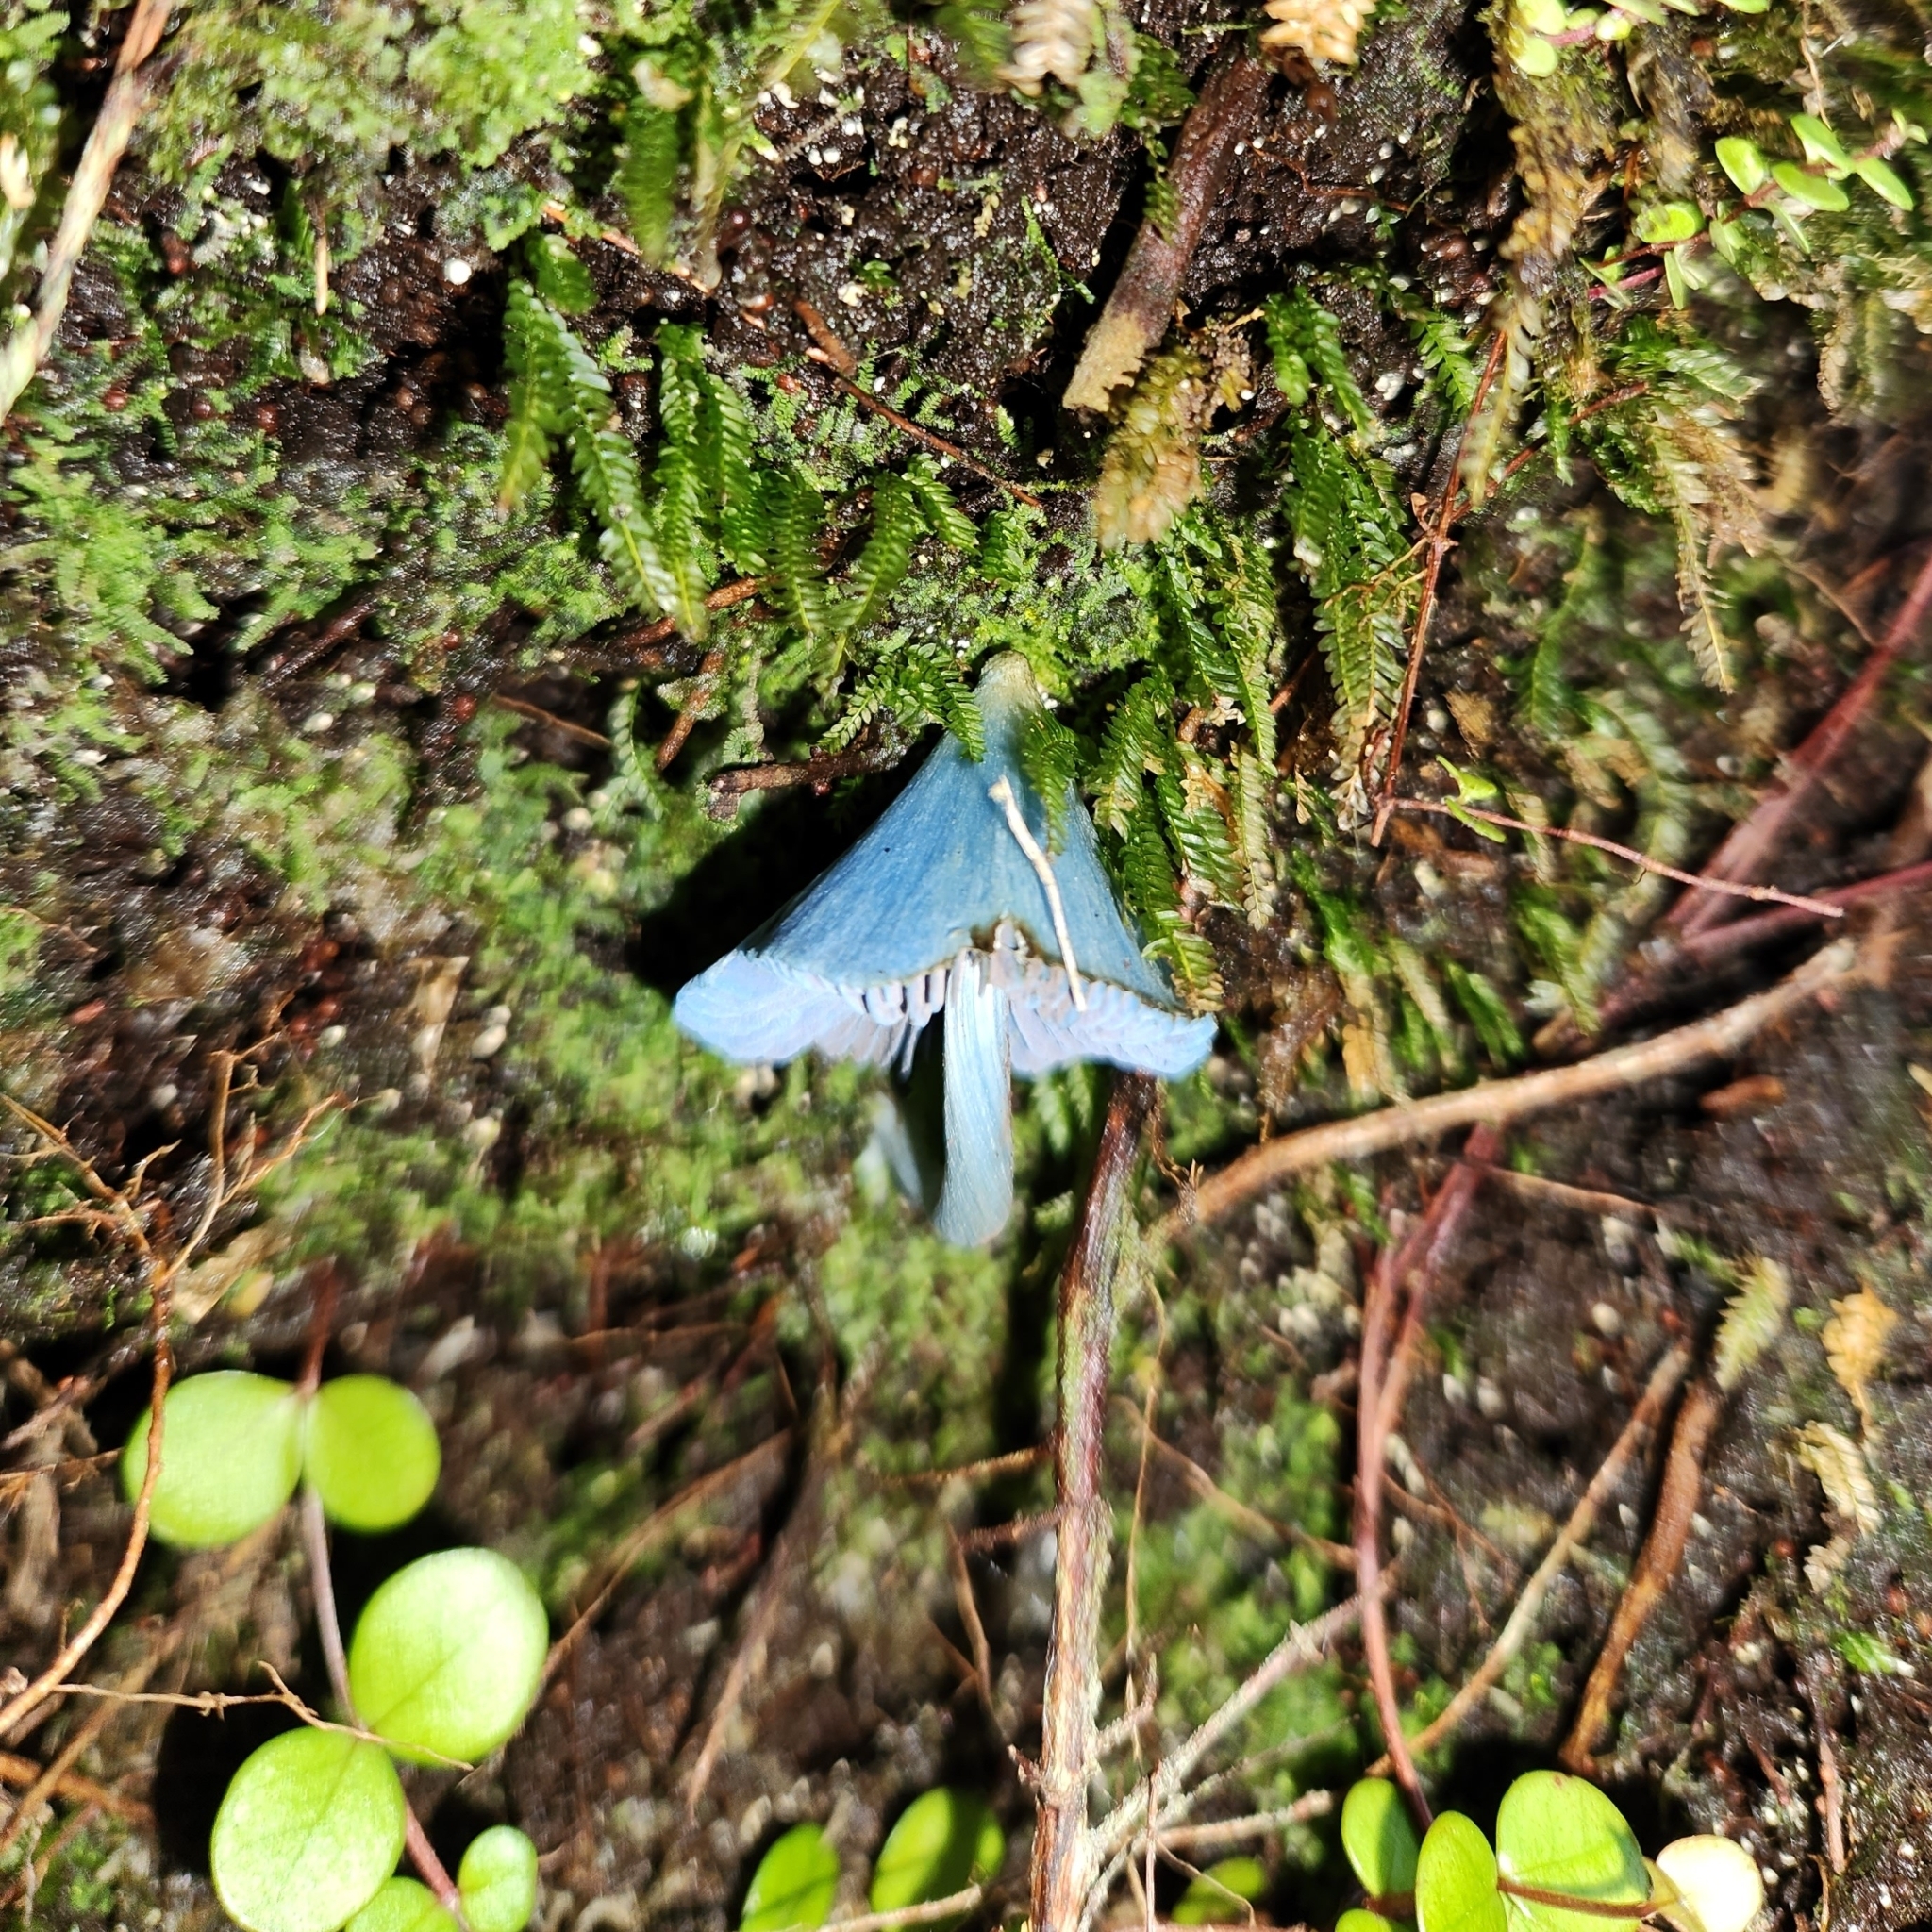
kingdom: Fungi
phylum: Basidiomycota
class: Agaricomycetes
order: Agaricales
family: Entolomataceae
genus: Entoloma
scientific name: Entoloma hochstetteri
